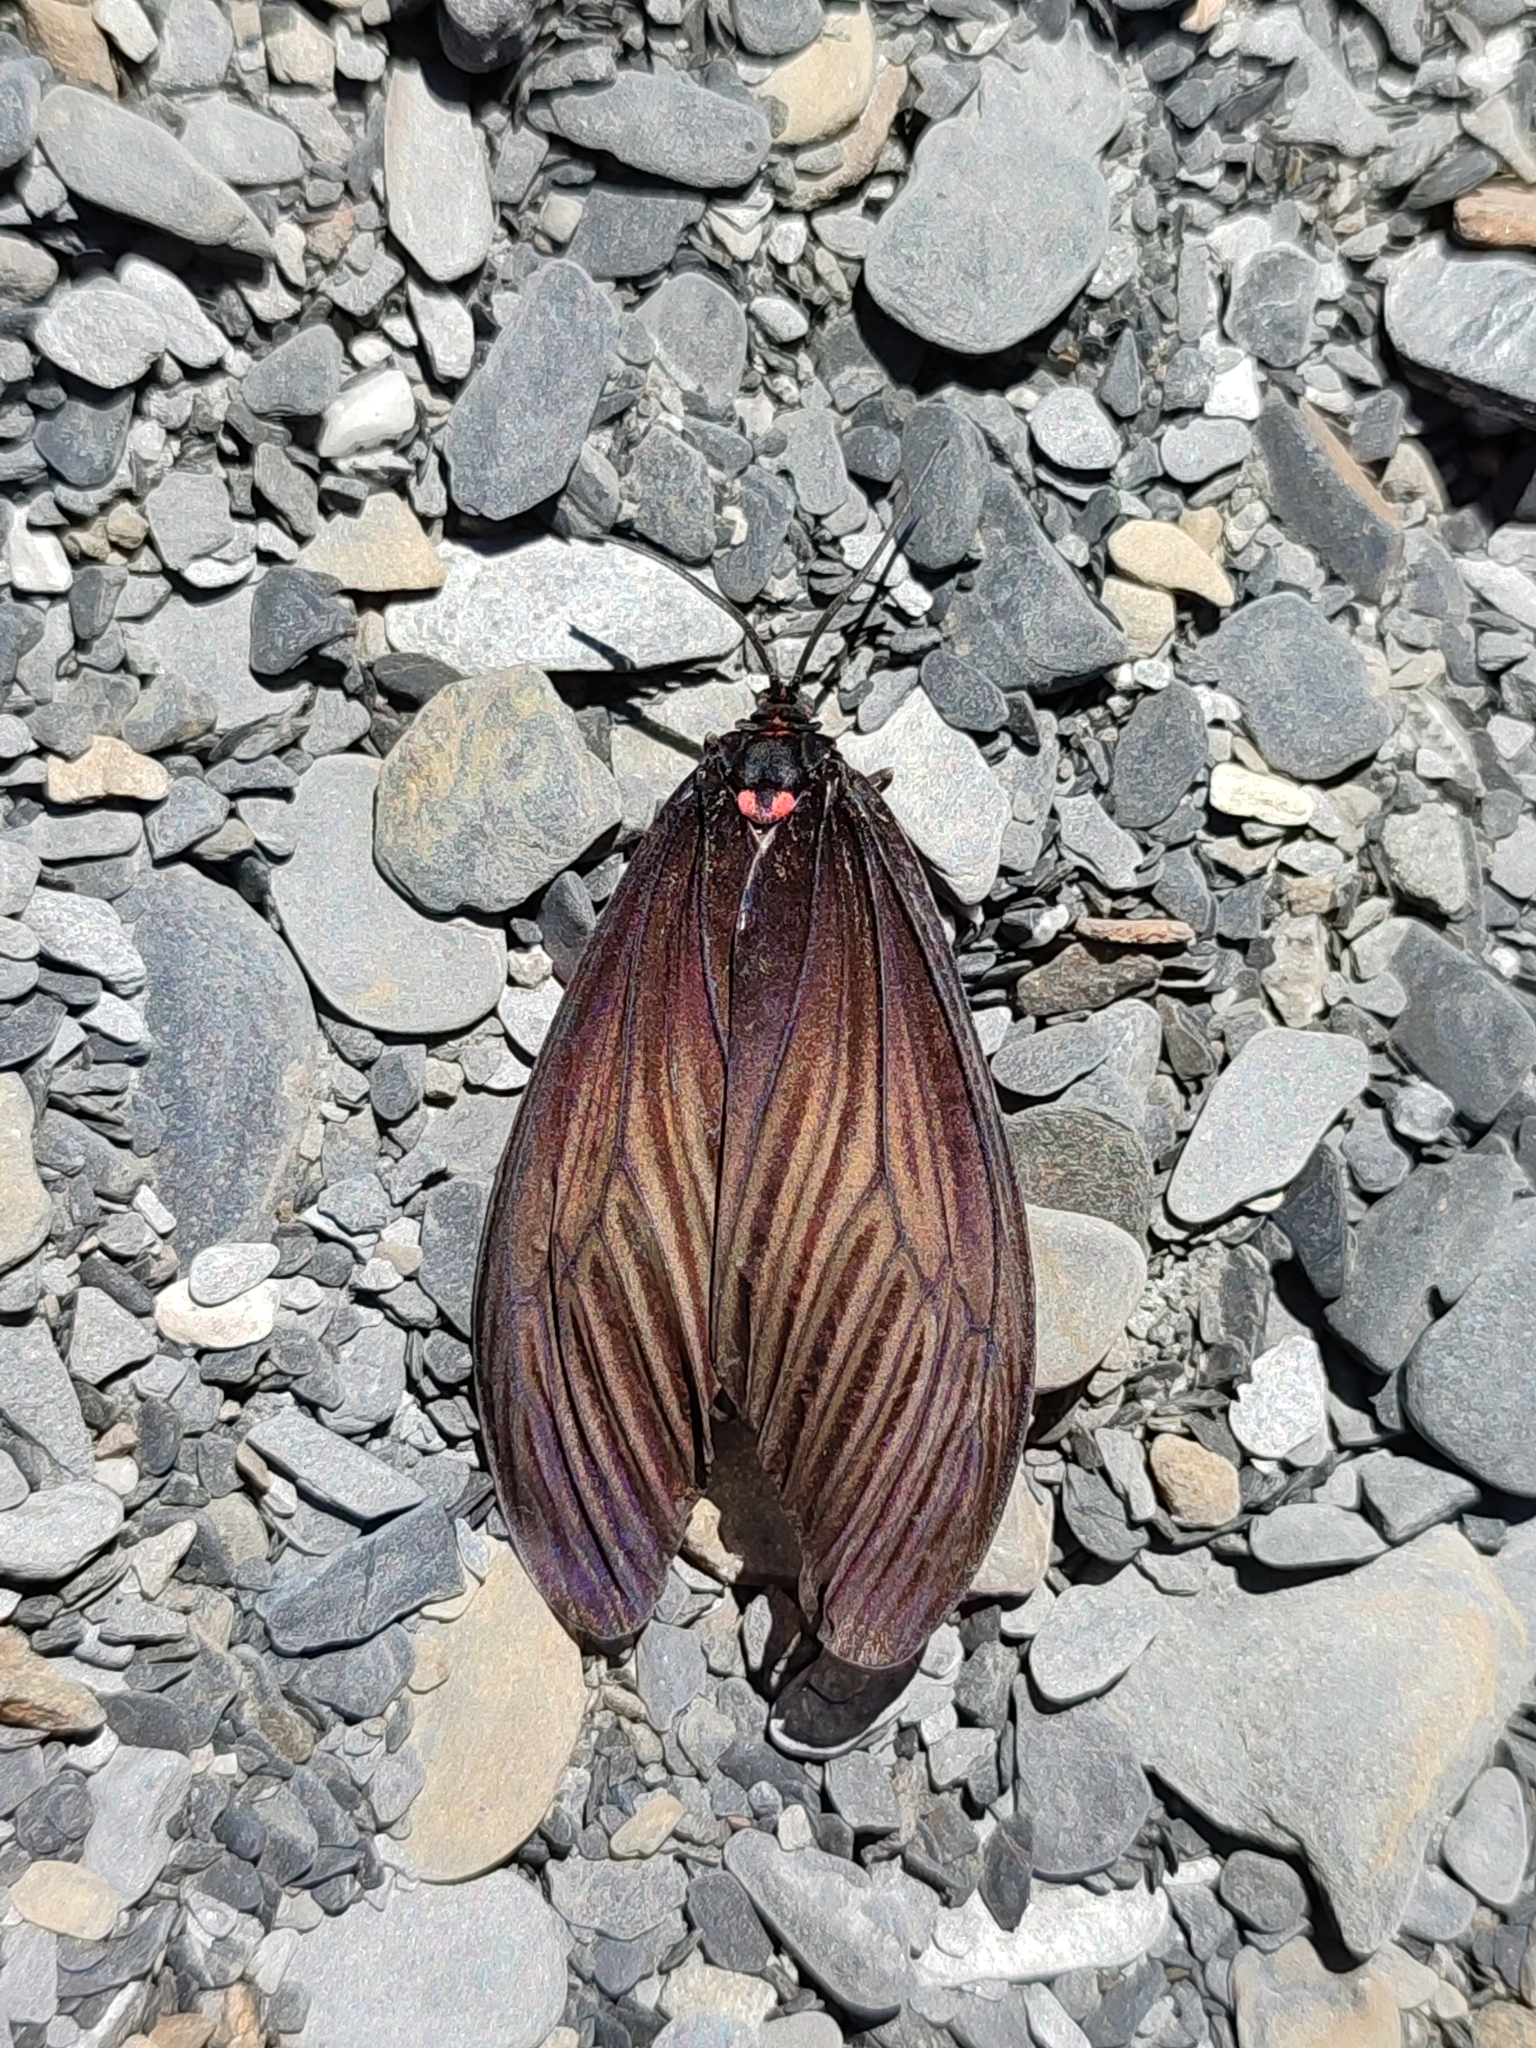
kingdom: Animalia
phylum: Arthropoda
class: Insecta
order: Lepidoptera
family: Zygaenidae
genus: Gynautocera
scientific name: Gynautocera rubriscutellata
